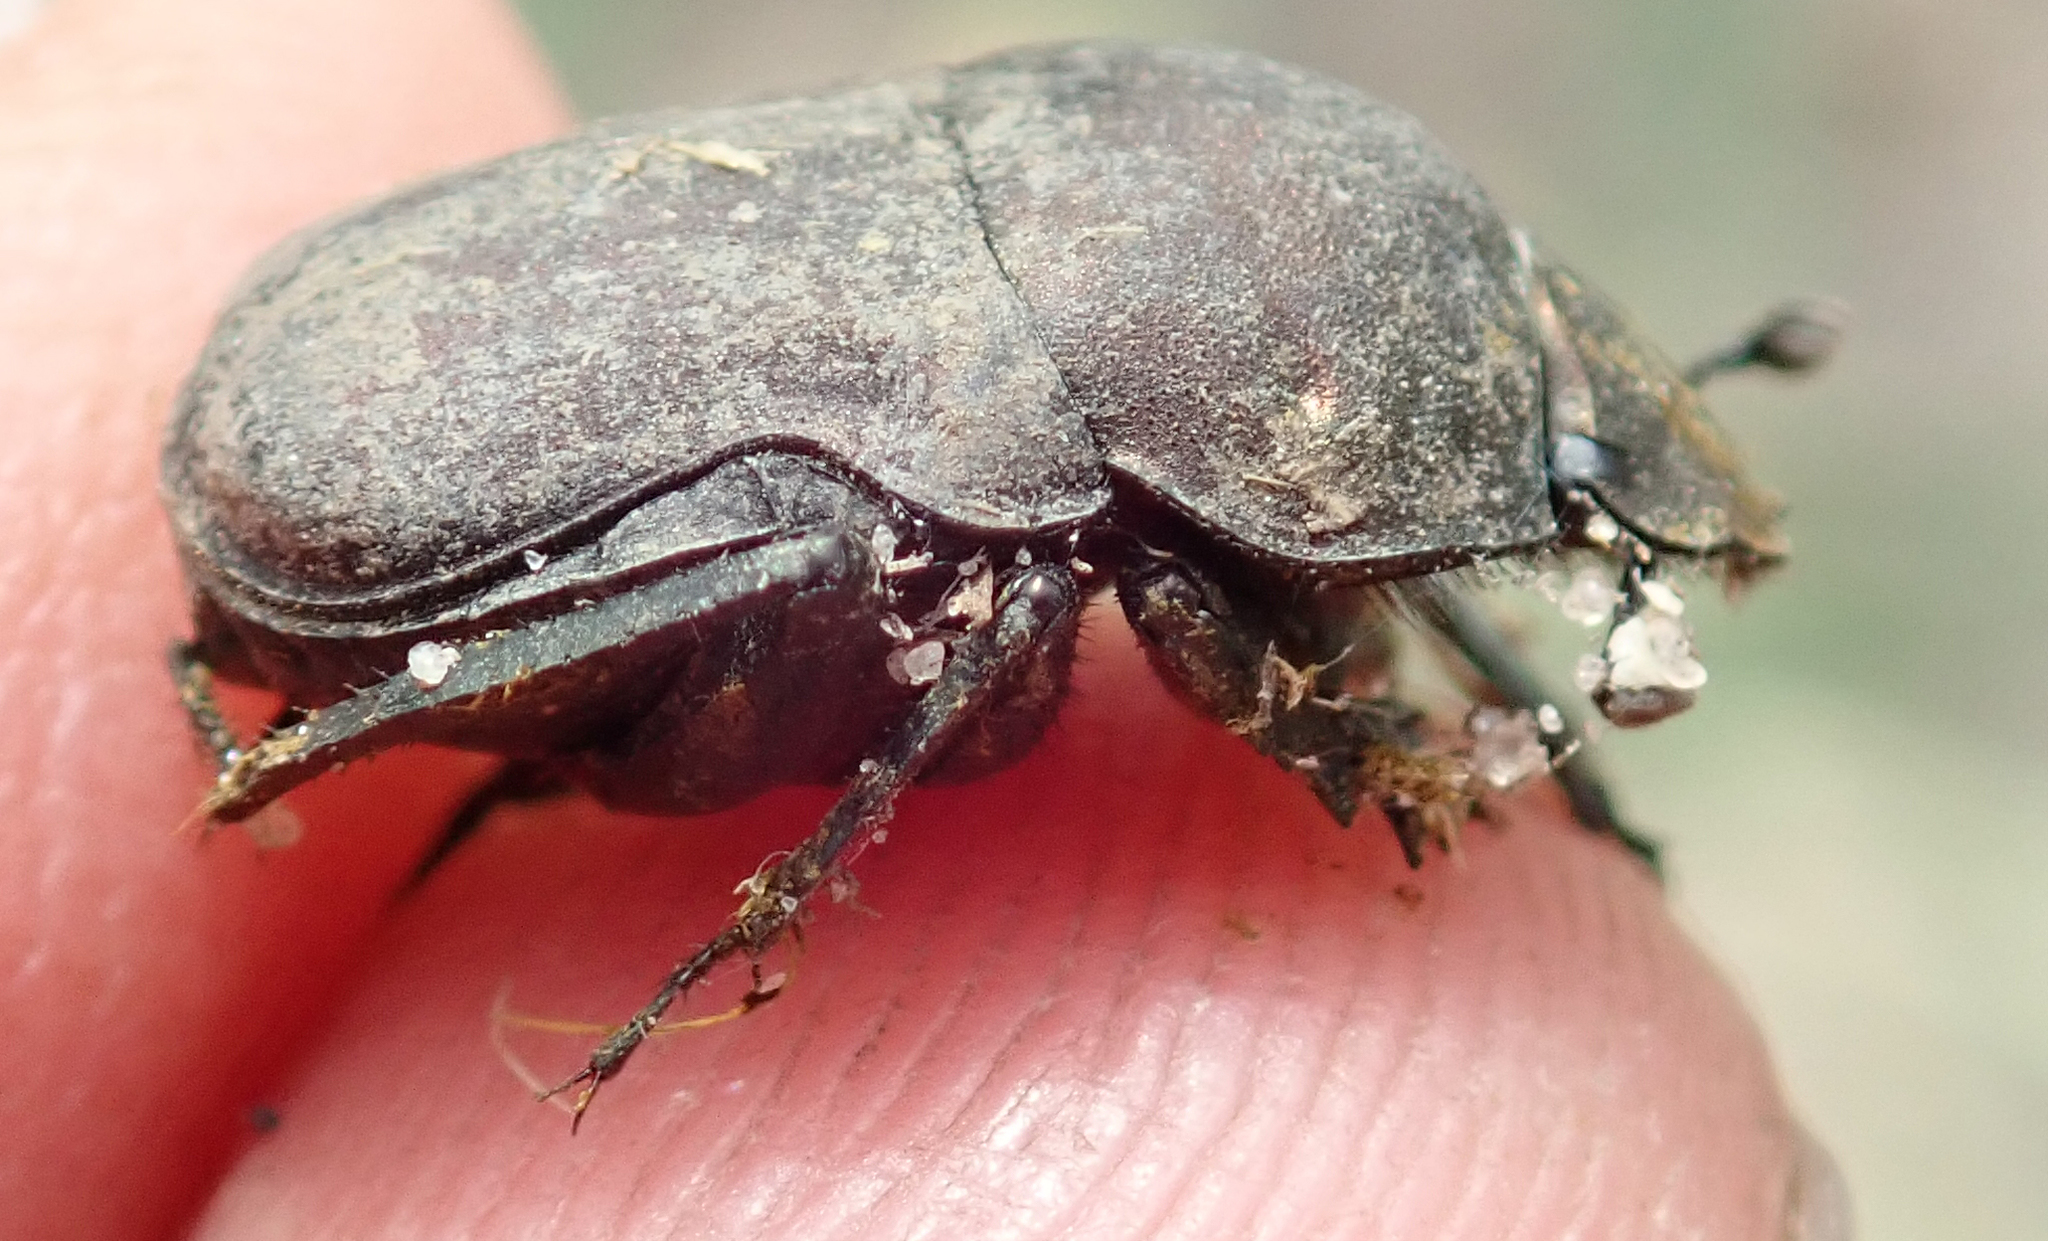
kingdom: Animalia
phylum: Arthropoda
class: Insecta
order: Coleoptera
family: Scarabaeidae
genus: Allogymnopleurus
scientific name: Allogymnopleurus splendidus
